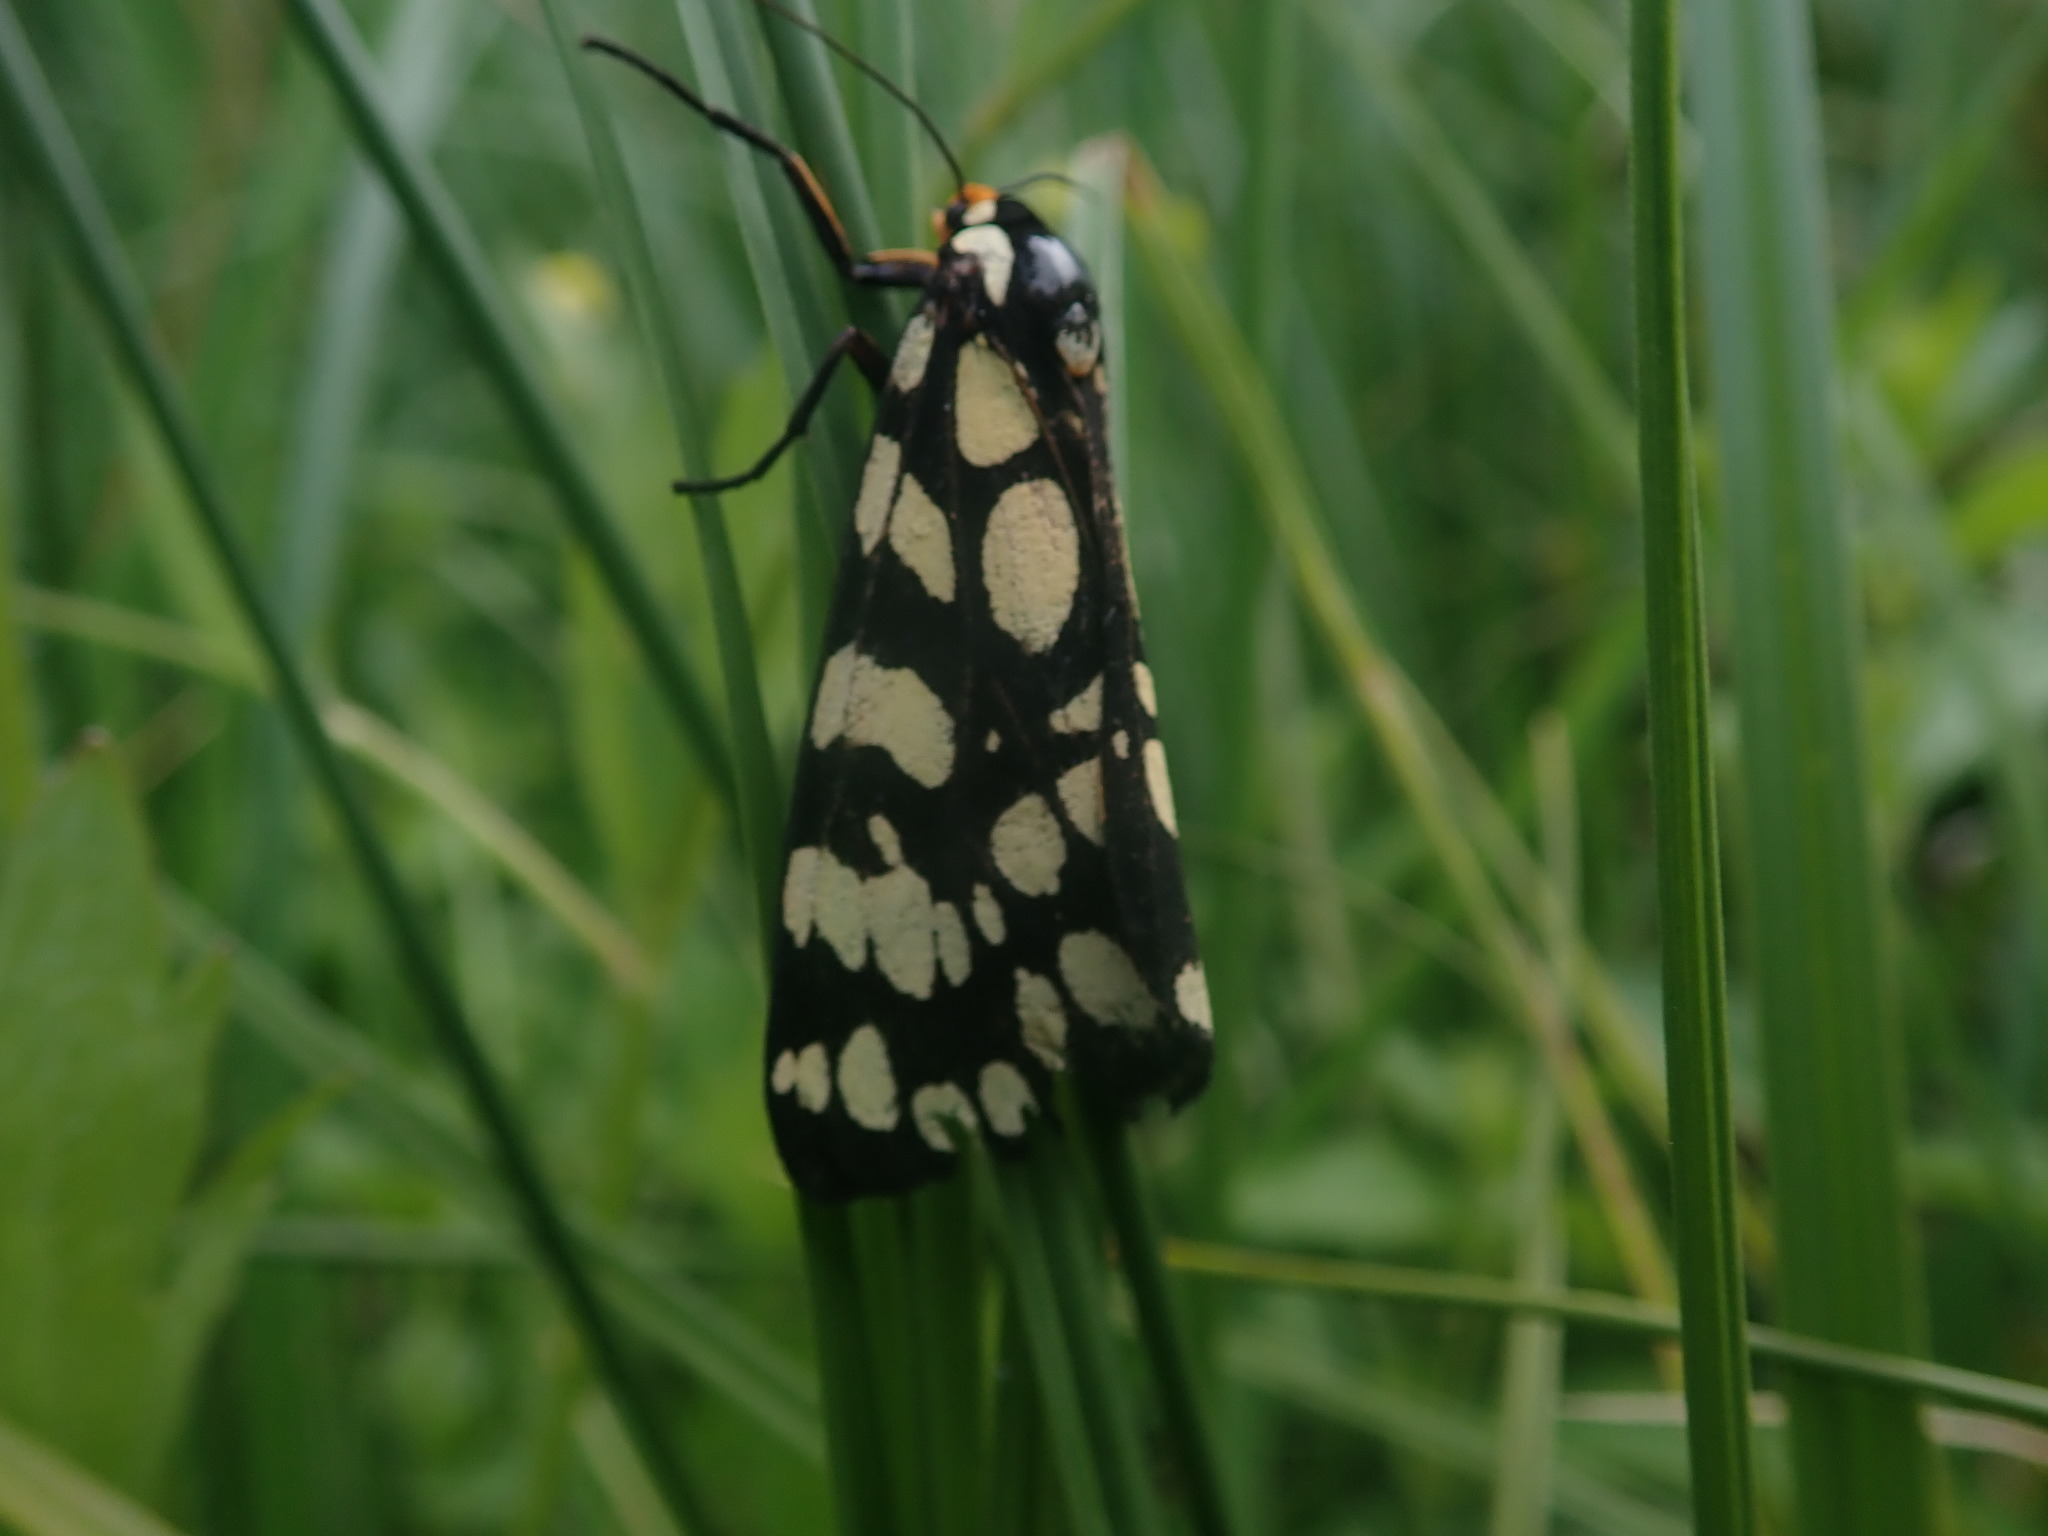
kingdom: Animalia
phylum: Arthropoda
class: Insecta
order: Lepidoptera
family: Erebidae
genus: Arctia
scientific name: Arctia tigrina
